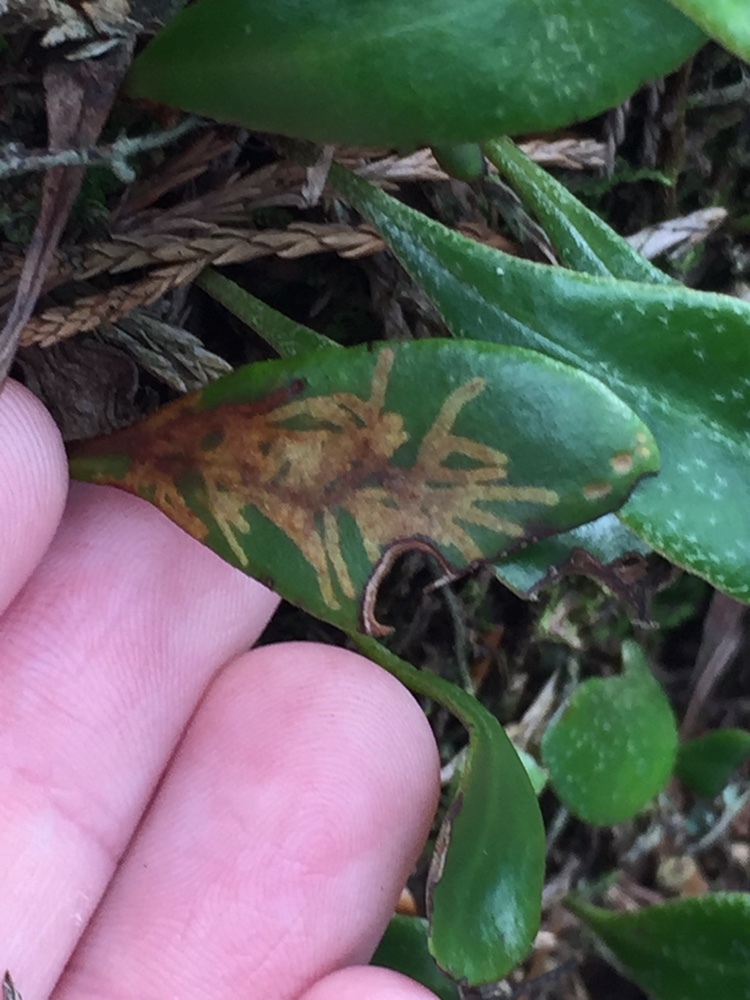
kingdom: Animalia
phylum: Arthropoda
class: Insecta
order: Lepidoptera
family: Tortricidae
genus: Philocryptica
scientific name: Philocryptica polypodii
